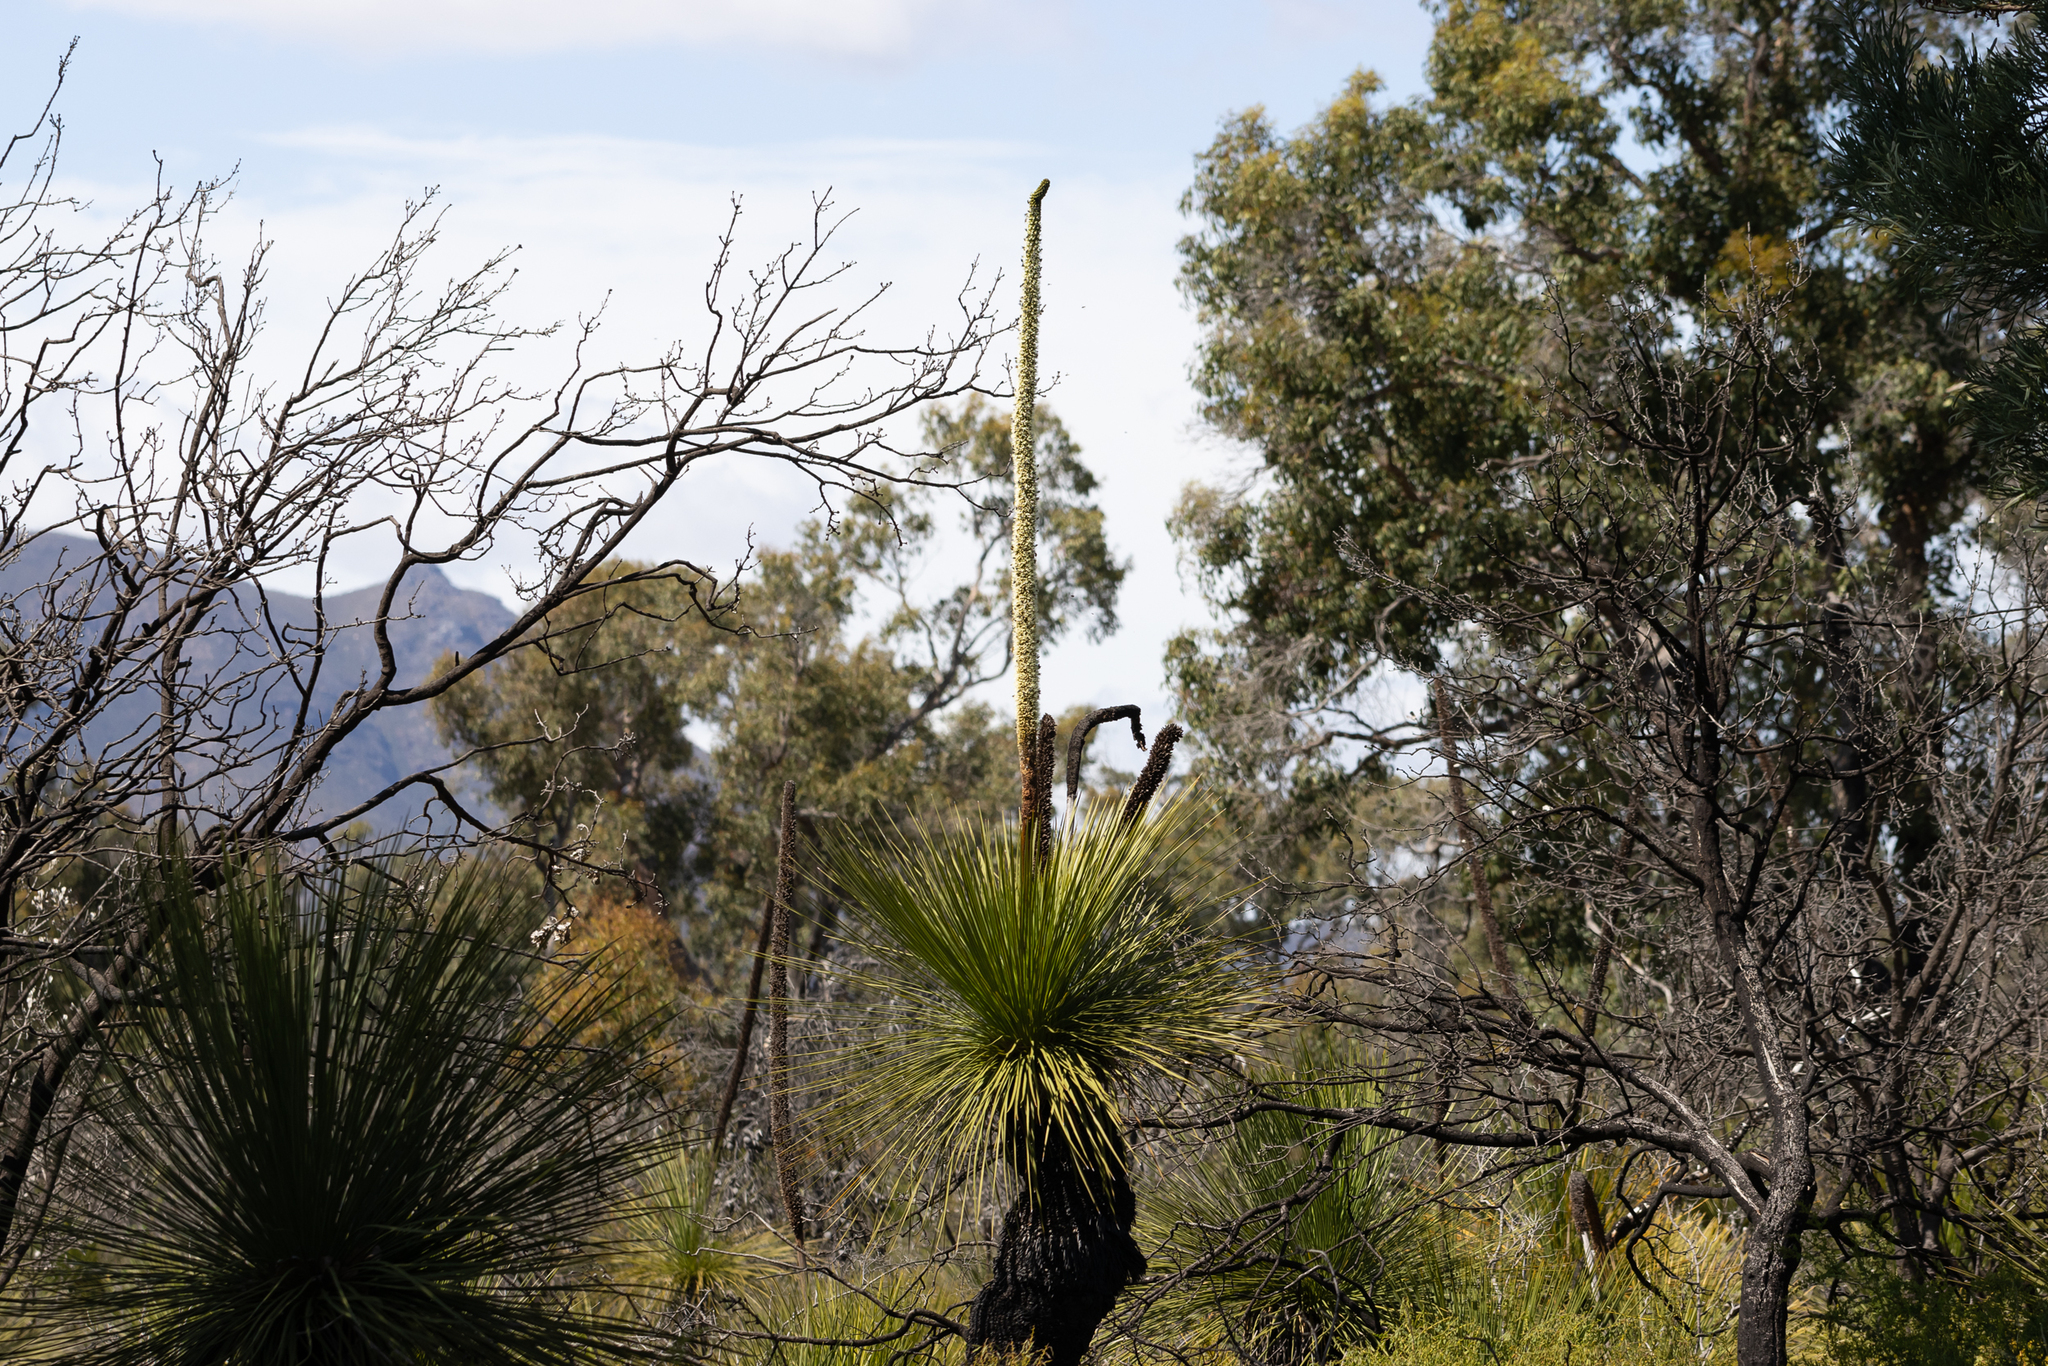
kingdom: Plantae
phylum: Tracheophyta
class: Liliopsida
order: Asparagales
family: Asphodelaceae
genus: Xanthorrhoea
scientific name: Xanthorrhoea platyphylla
